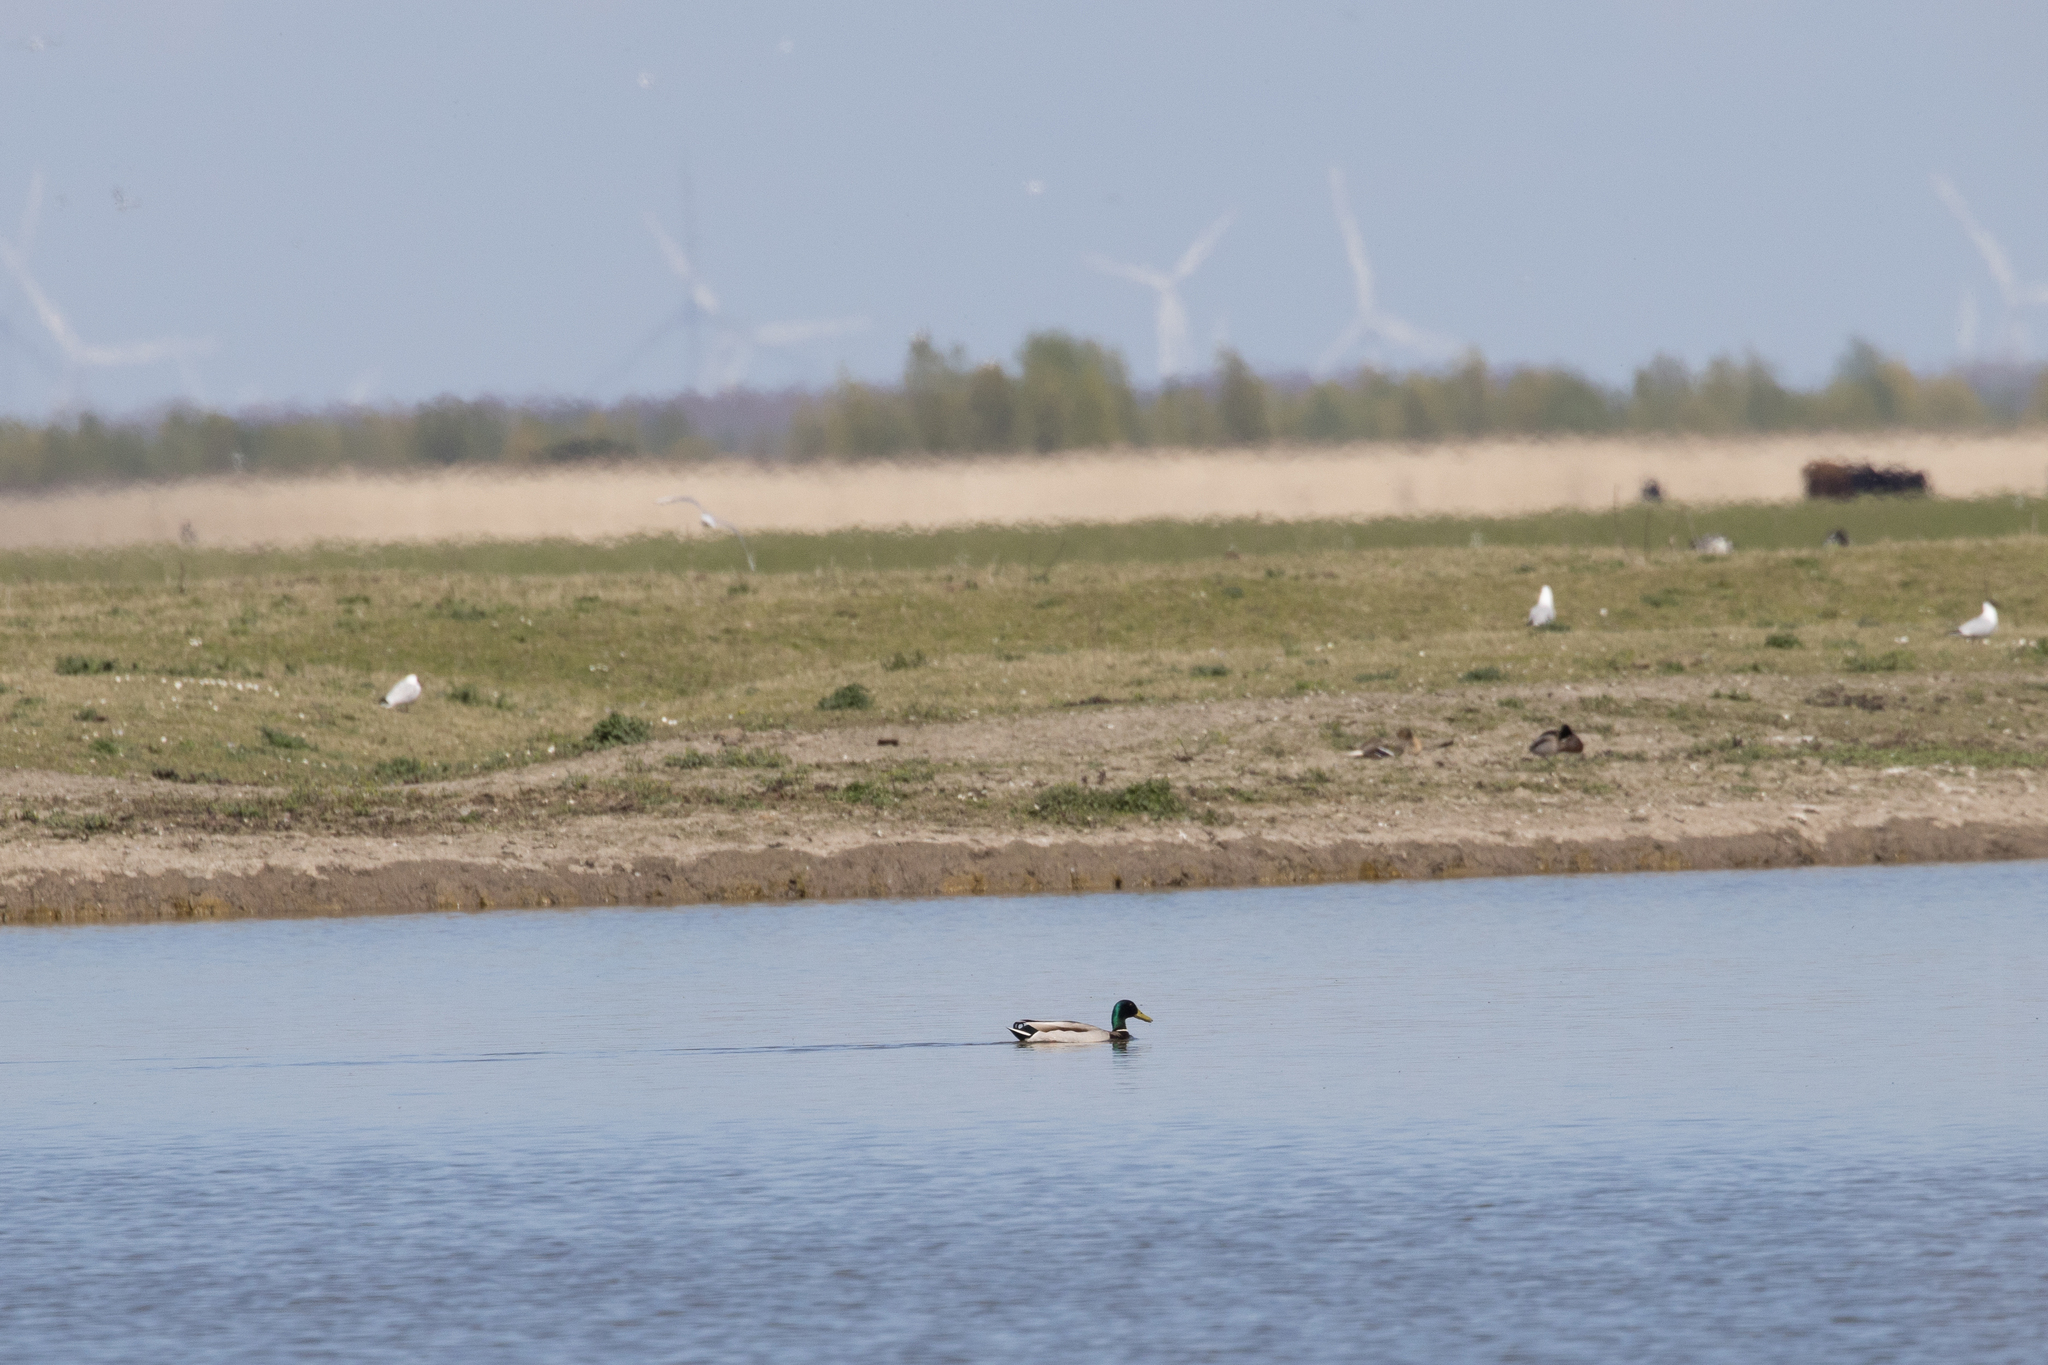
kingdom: Animalia
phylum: Chordata
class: Aves
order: Anseriformes
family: Anatidae
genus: Anas
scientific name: Anas platyrhynchos
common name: Mallard
